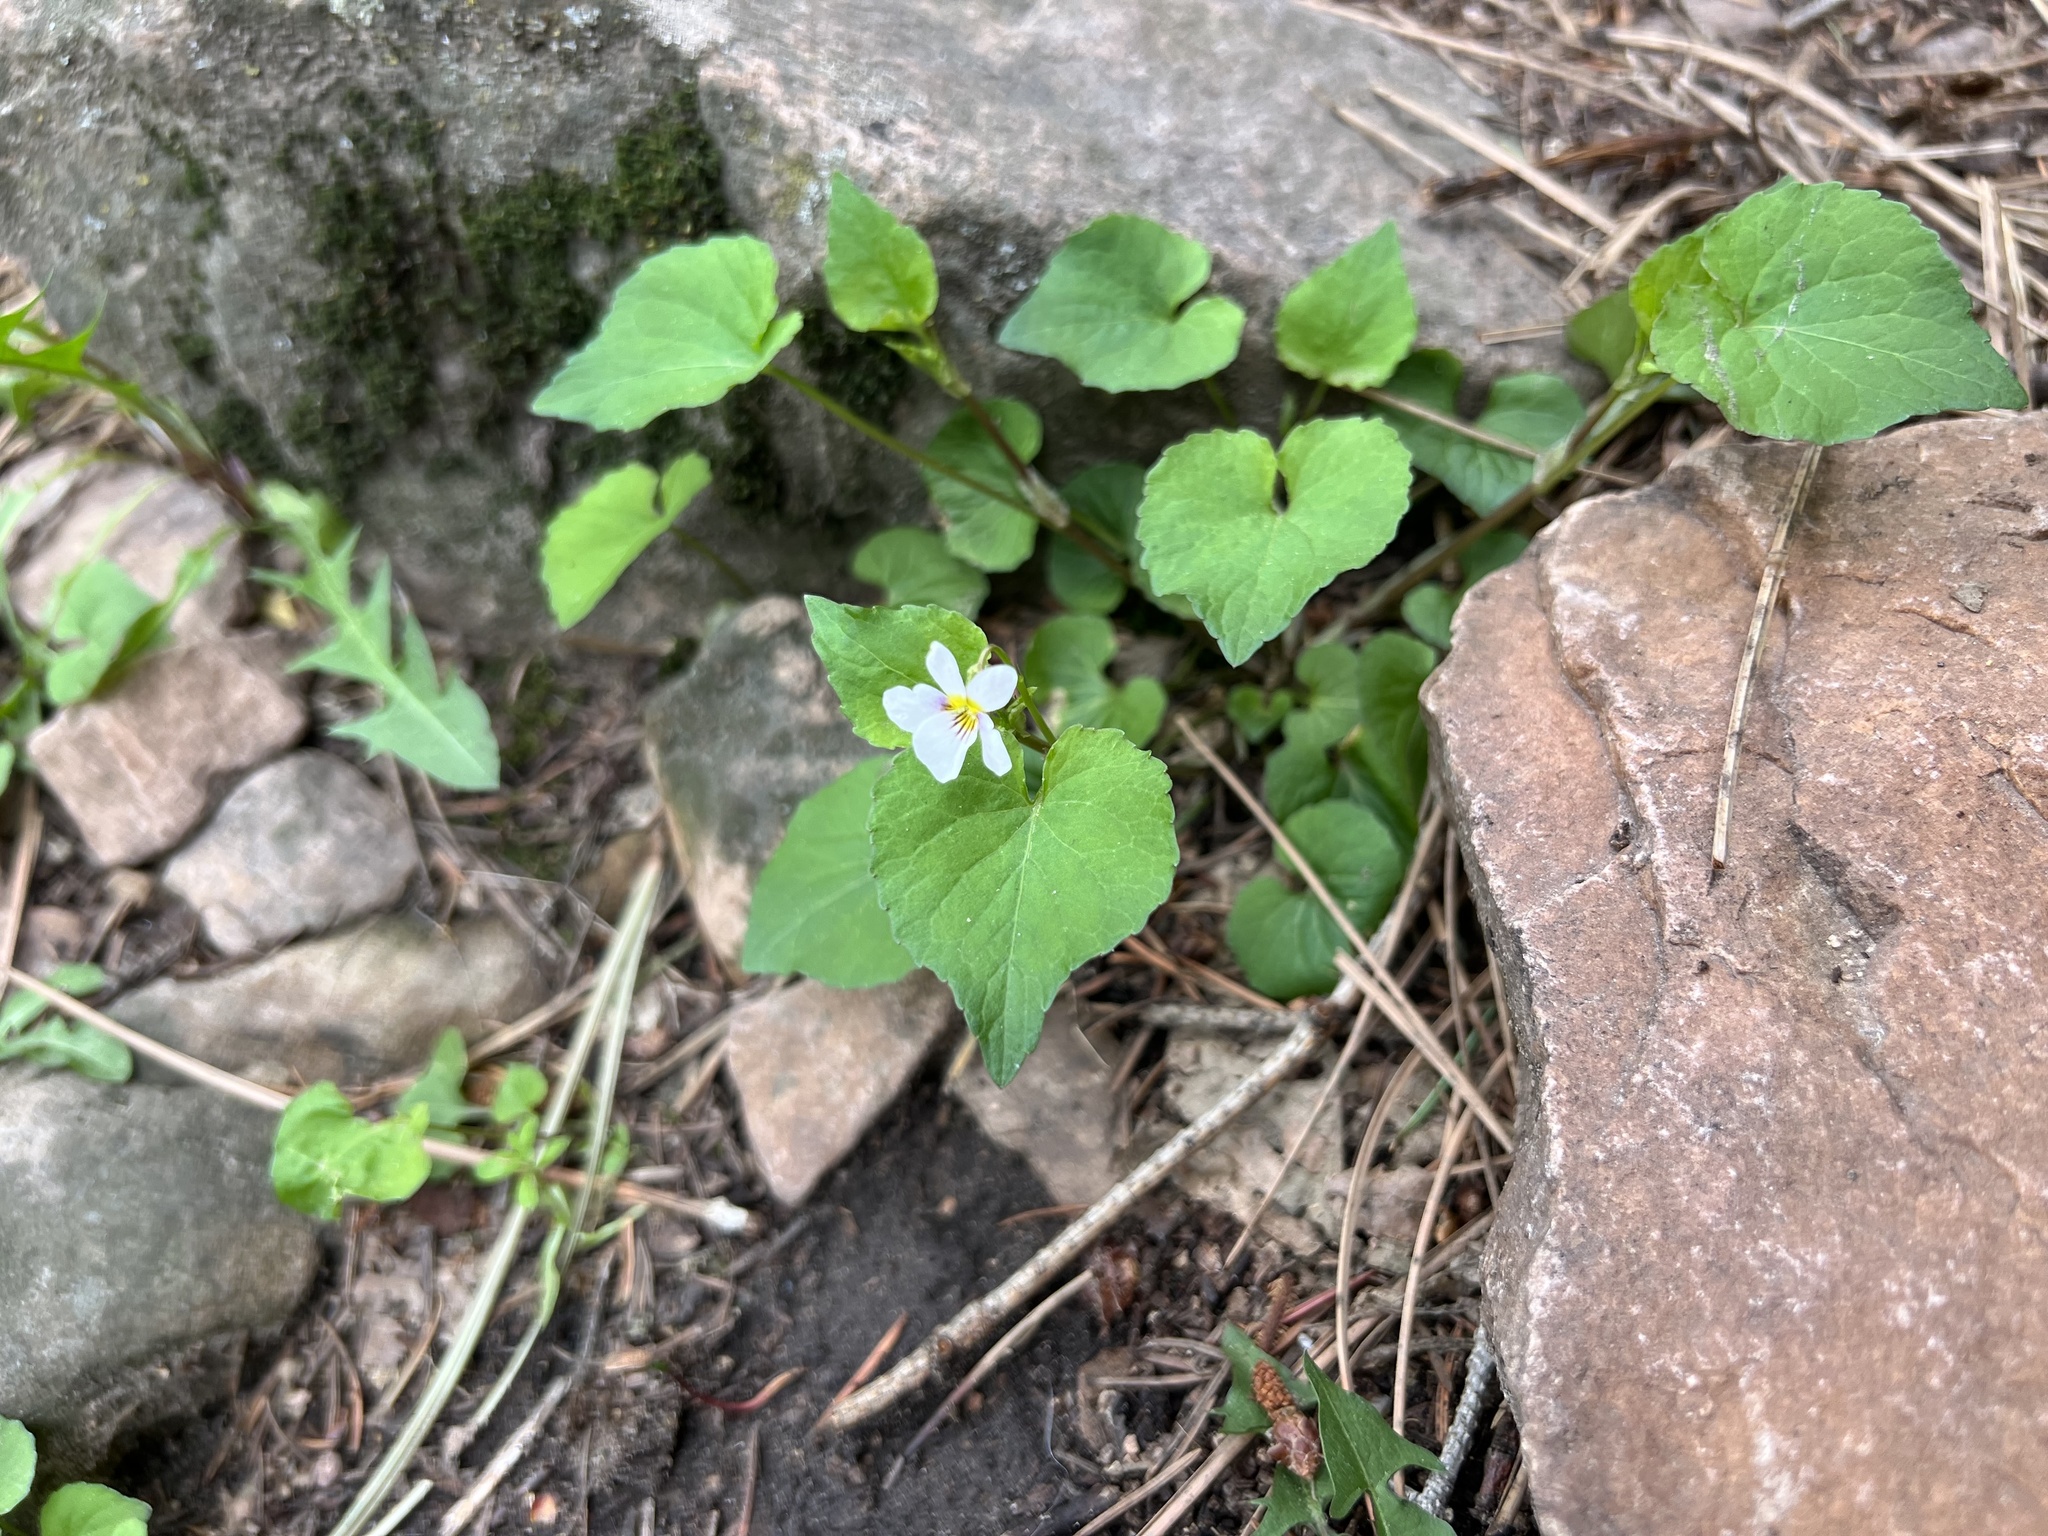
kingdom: Plantae
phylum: Tracheophyta
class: Magnoliopsida
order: Malpighiales
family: Violaceae
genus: Viola
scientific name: Viola canadensis
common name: Canada violet
